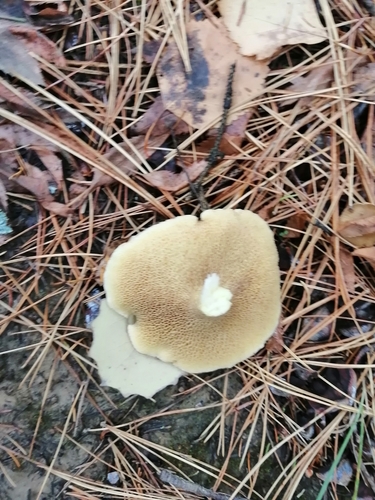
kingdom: Fungi
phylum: Basidiomycota
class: Agaricomycetes
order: Boletales
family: Suillaceae
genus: Suillus
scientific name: Suillus placidus
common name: Slippery white bolete
